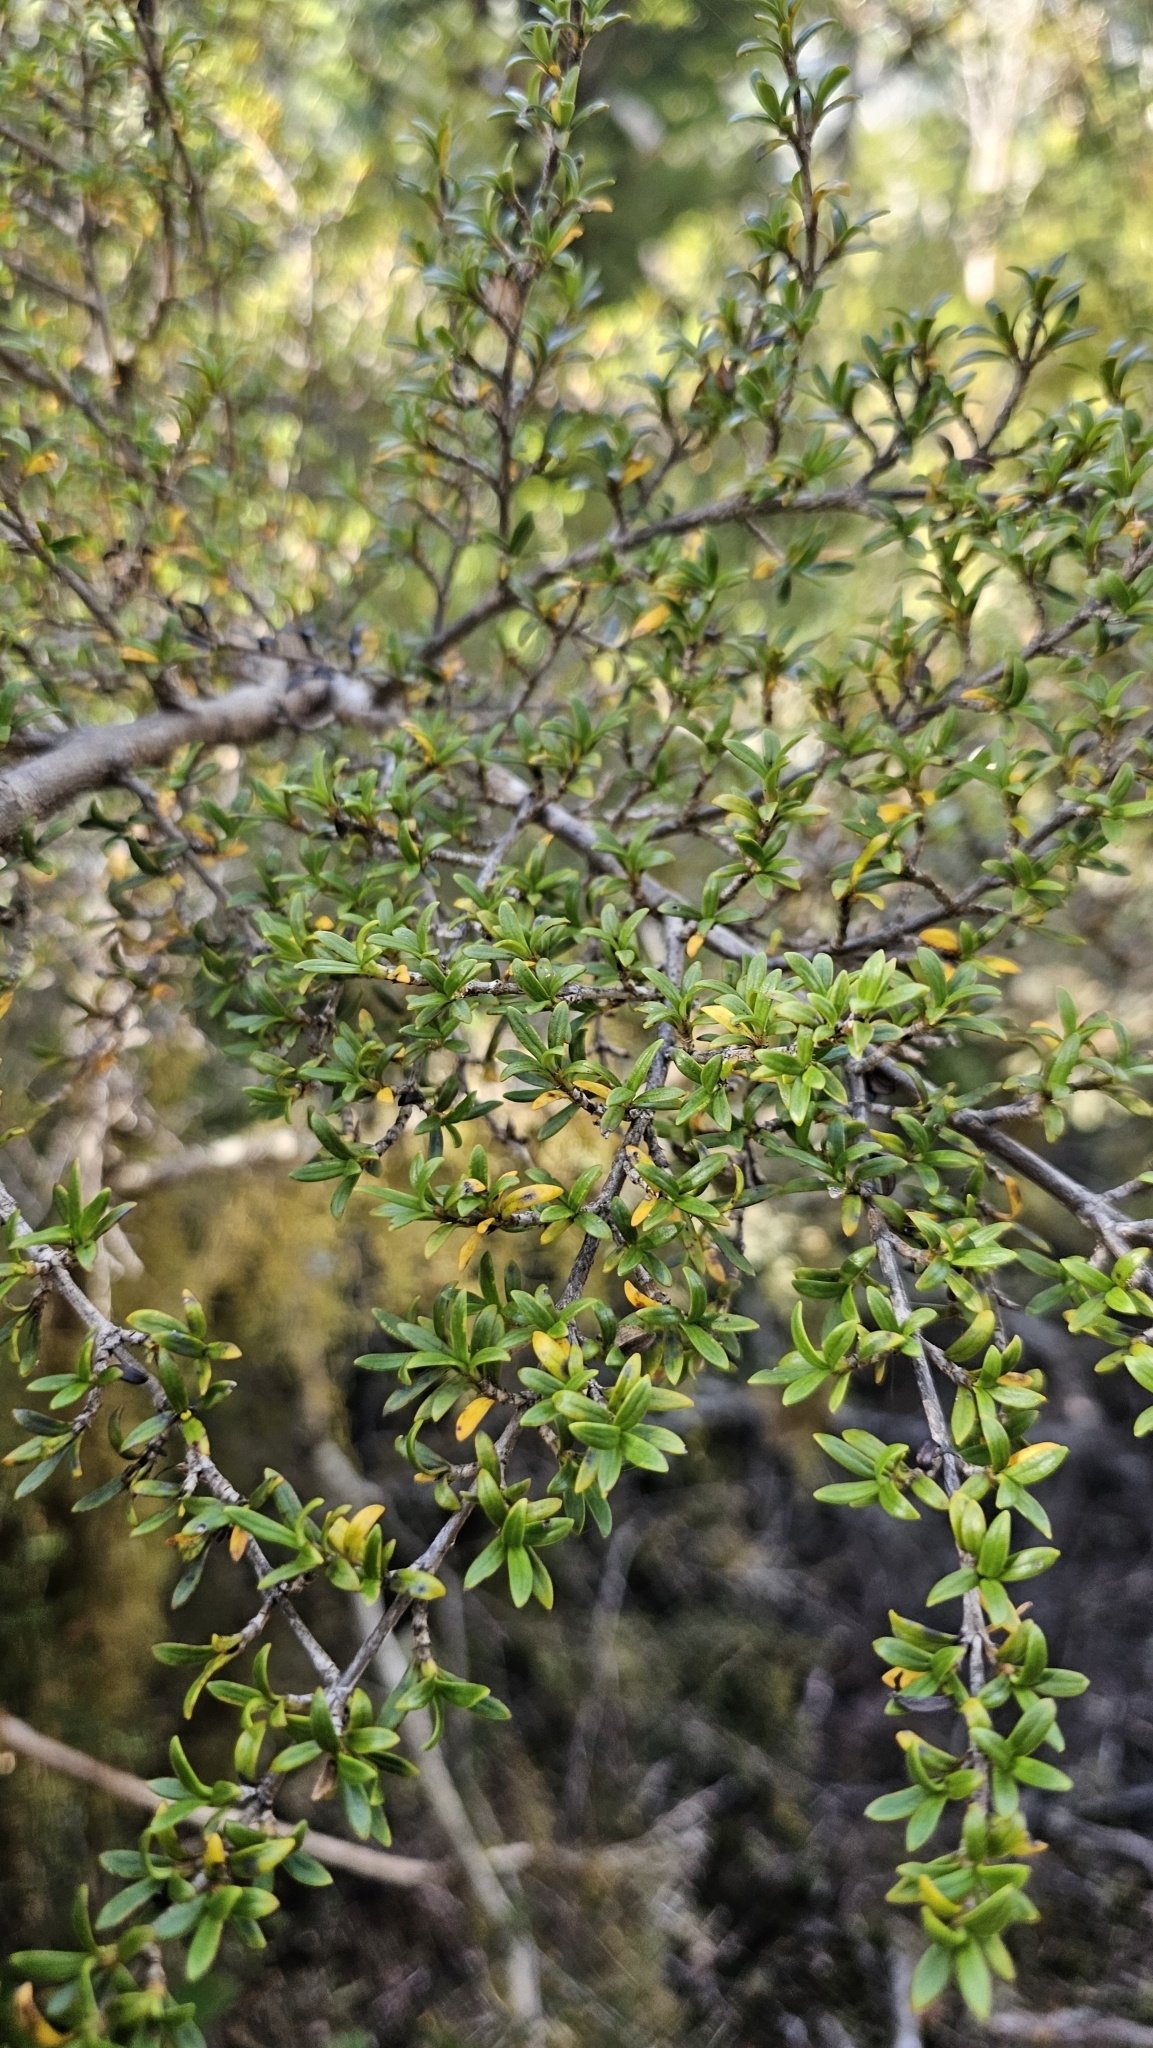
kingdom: Plantae
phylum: Tracheophyta
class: Magnoliopsida
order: Gentianales
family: Rubiaceae
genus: Coprosma
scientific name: Coprosma pseudocuneata
